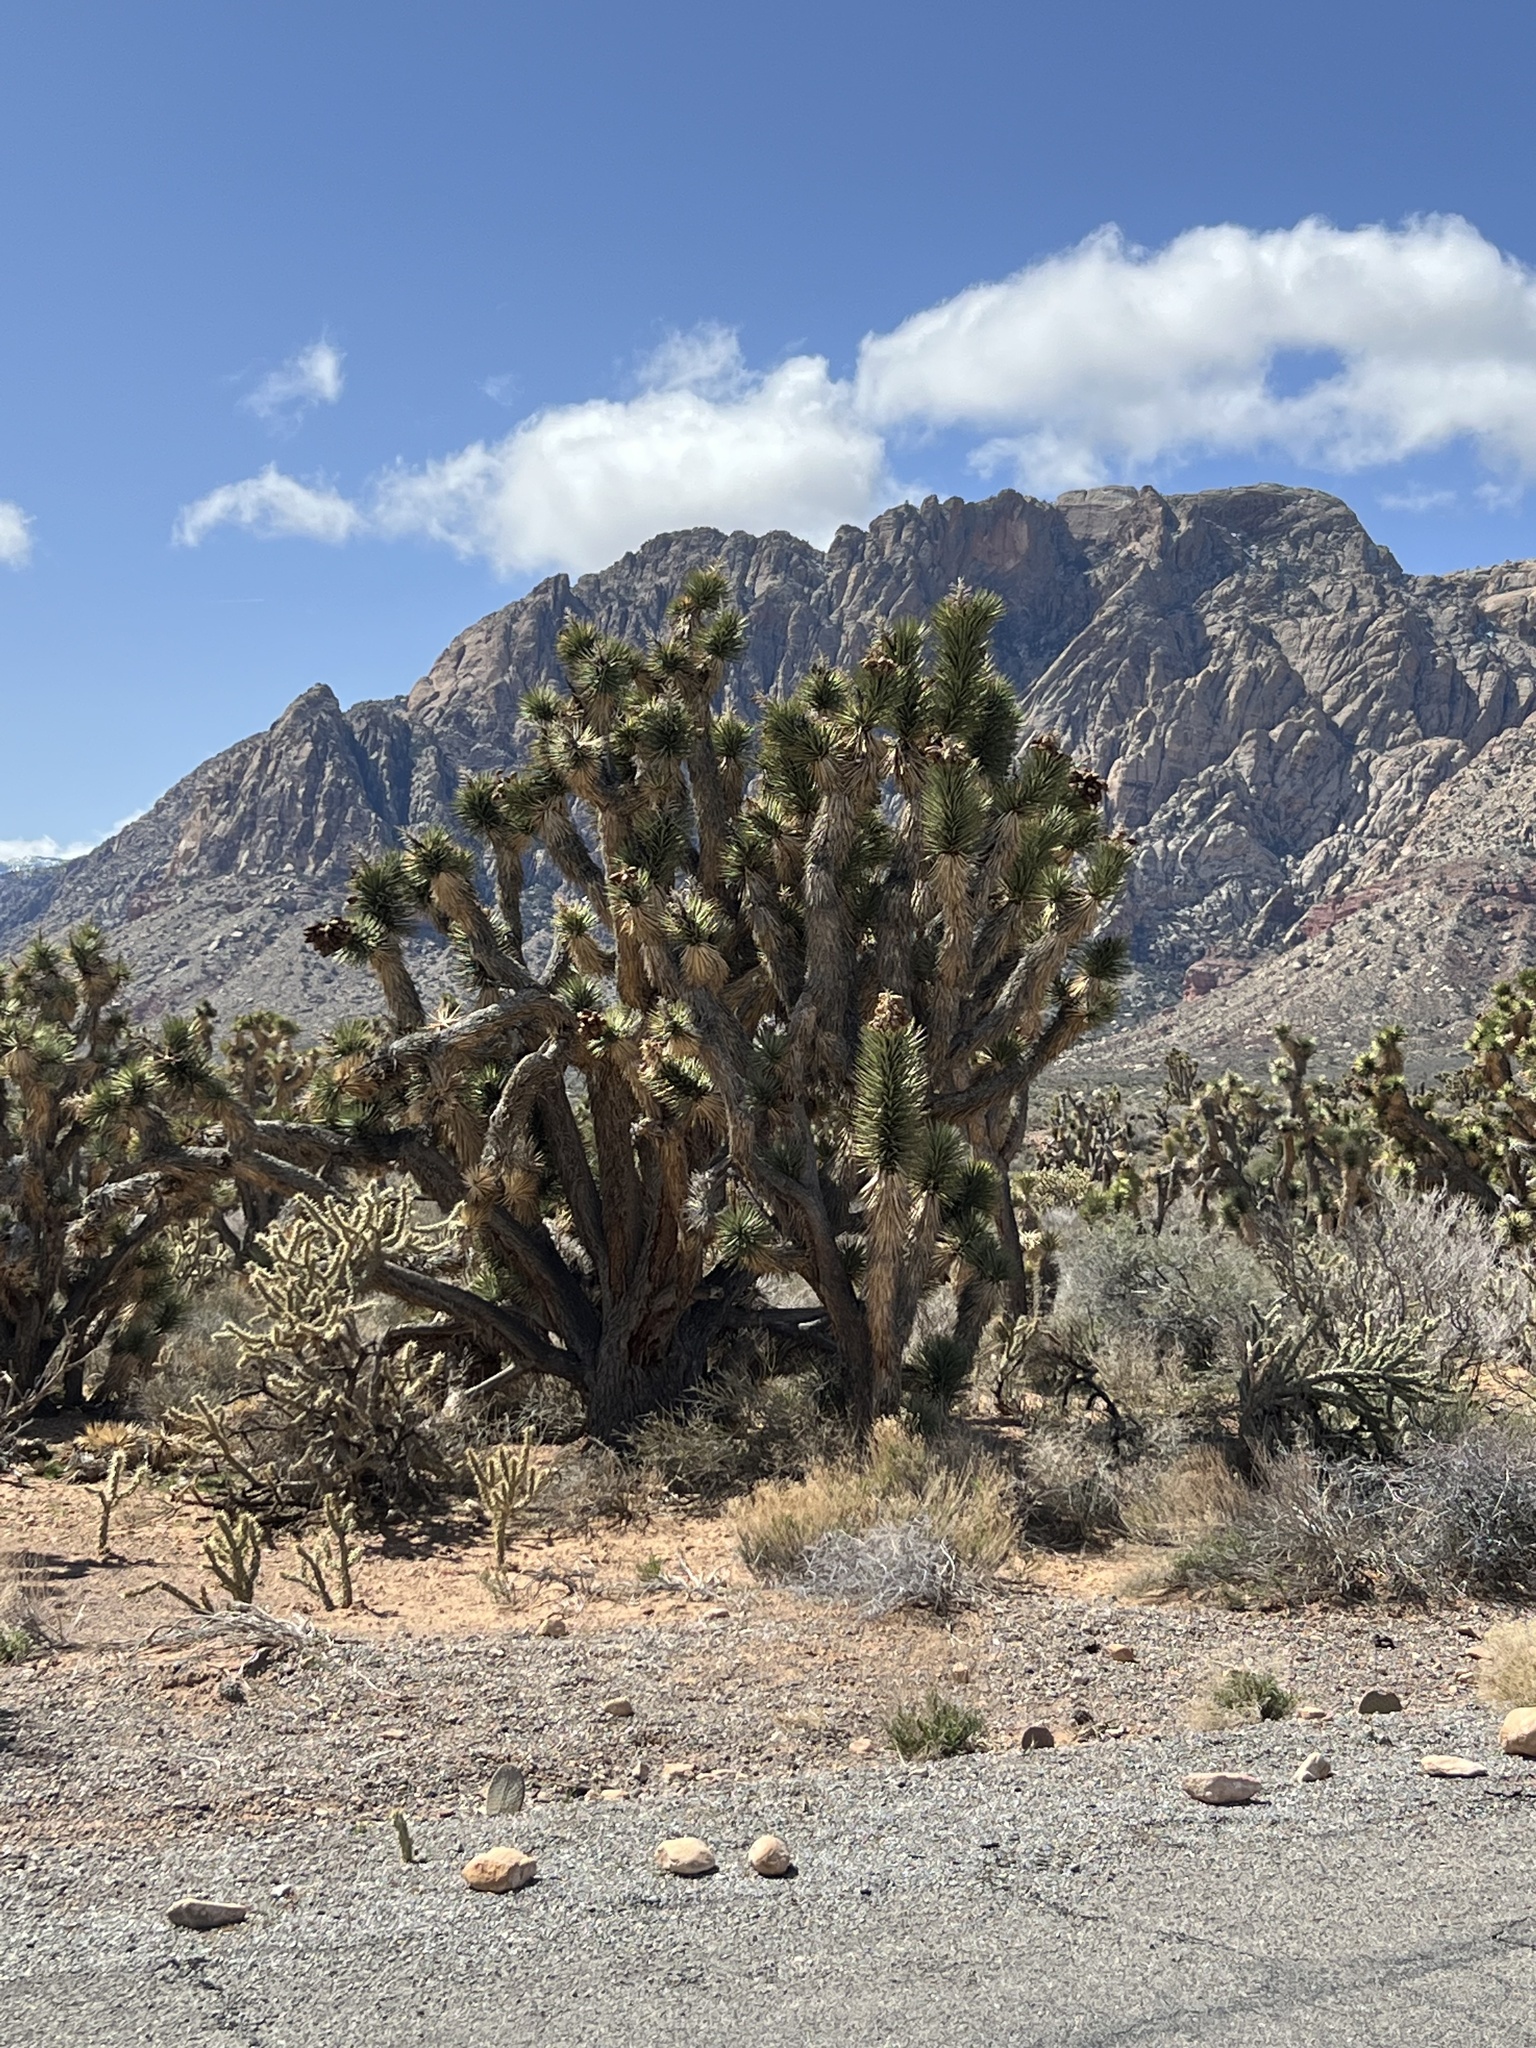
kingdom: Plantae
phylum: Tracheophyta
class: Liliopsida
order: Asparagales
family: Asparagaceae
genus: Yucca
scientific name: Yucca brevifolia
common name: Joshua tree
